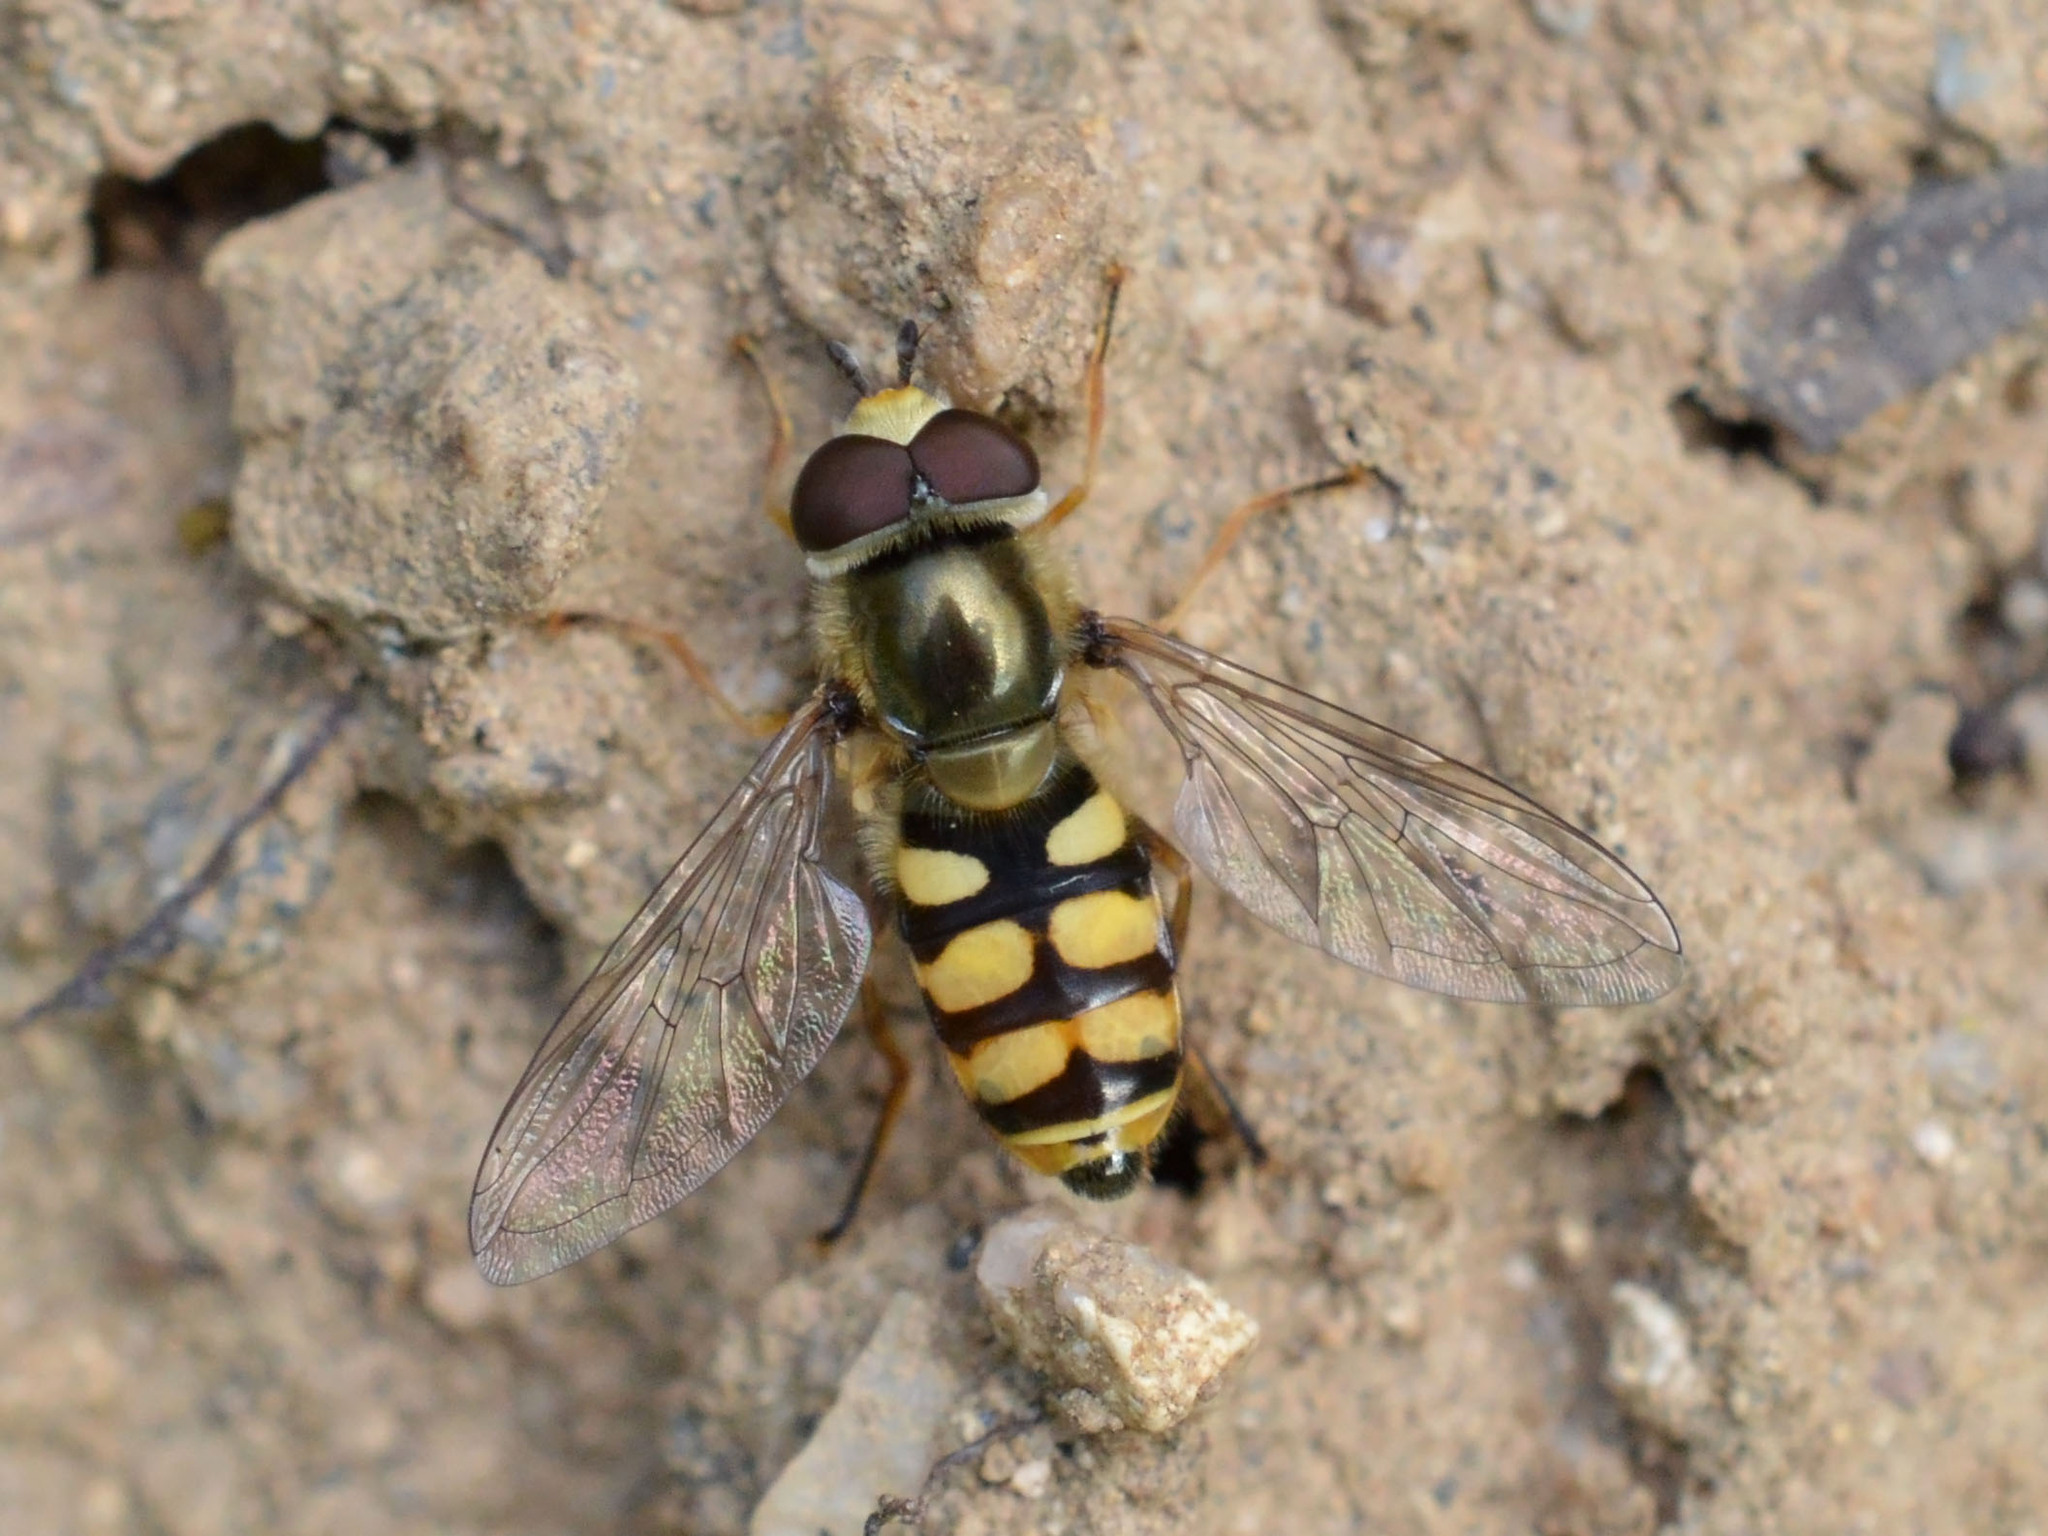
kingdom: Animalia
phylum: Arthropoda
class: Insecta
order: Diptera
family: Syrphidae
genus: Eupeodes
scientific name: Eupeodes corollae
